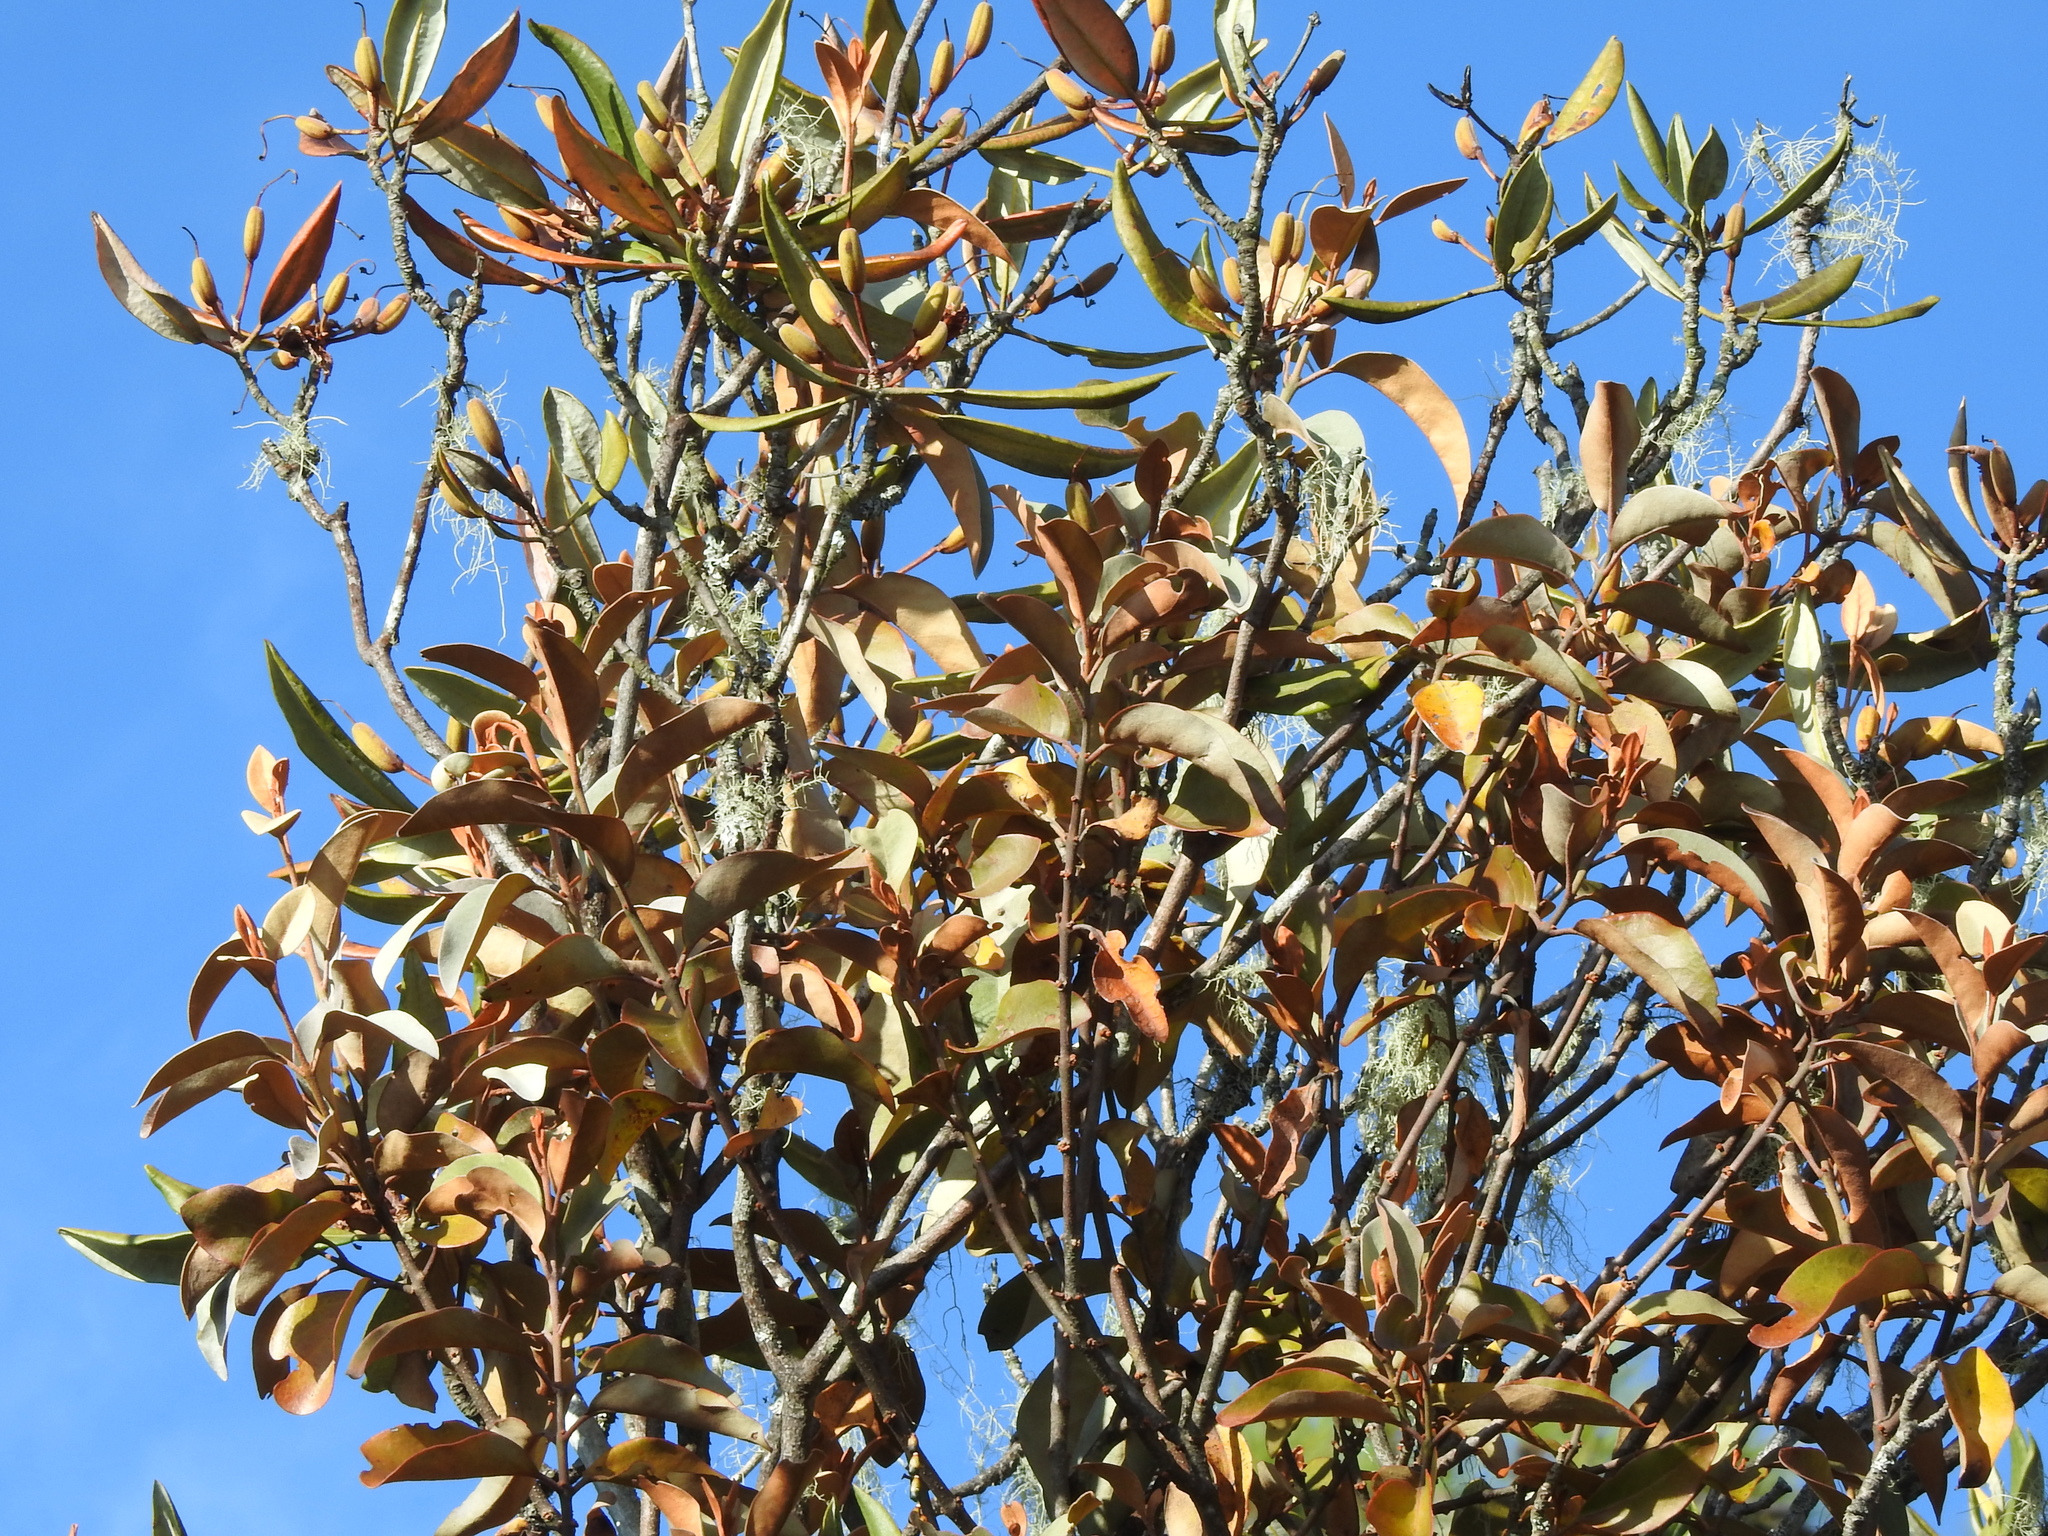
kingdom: Plantae
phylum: Tracheophyta
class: Magnoliopsida
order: Santalales
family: Loranthaceae
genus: Taxillus
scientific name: Taxillus nigrans
